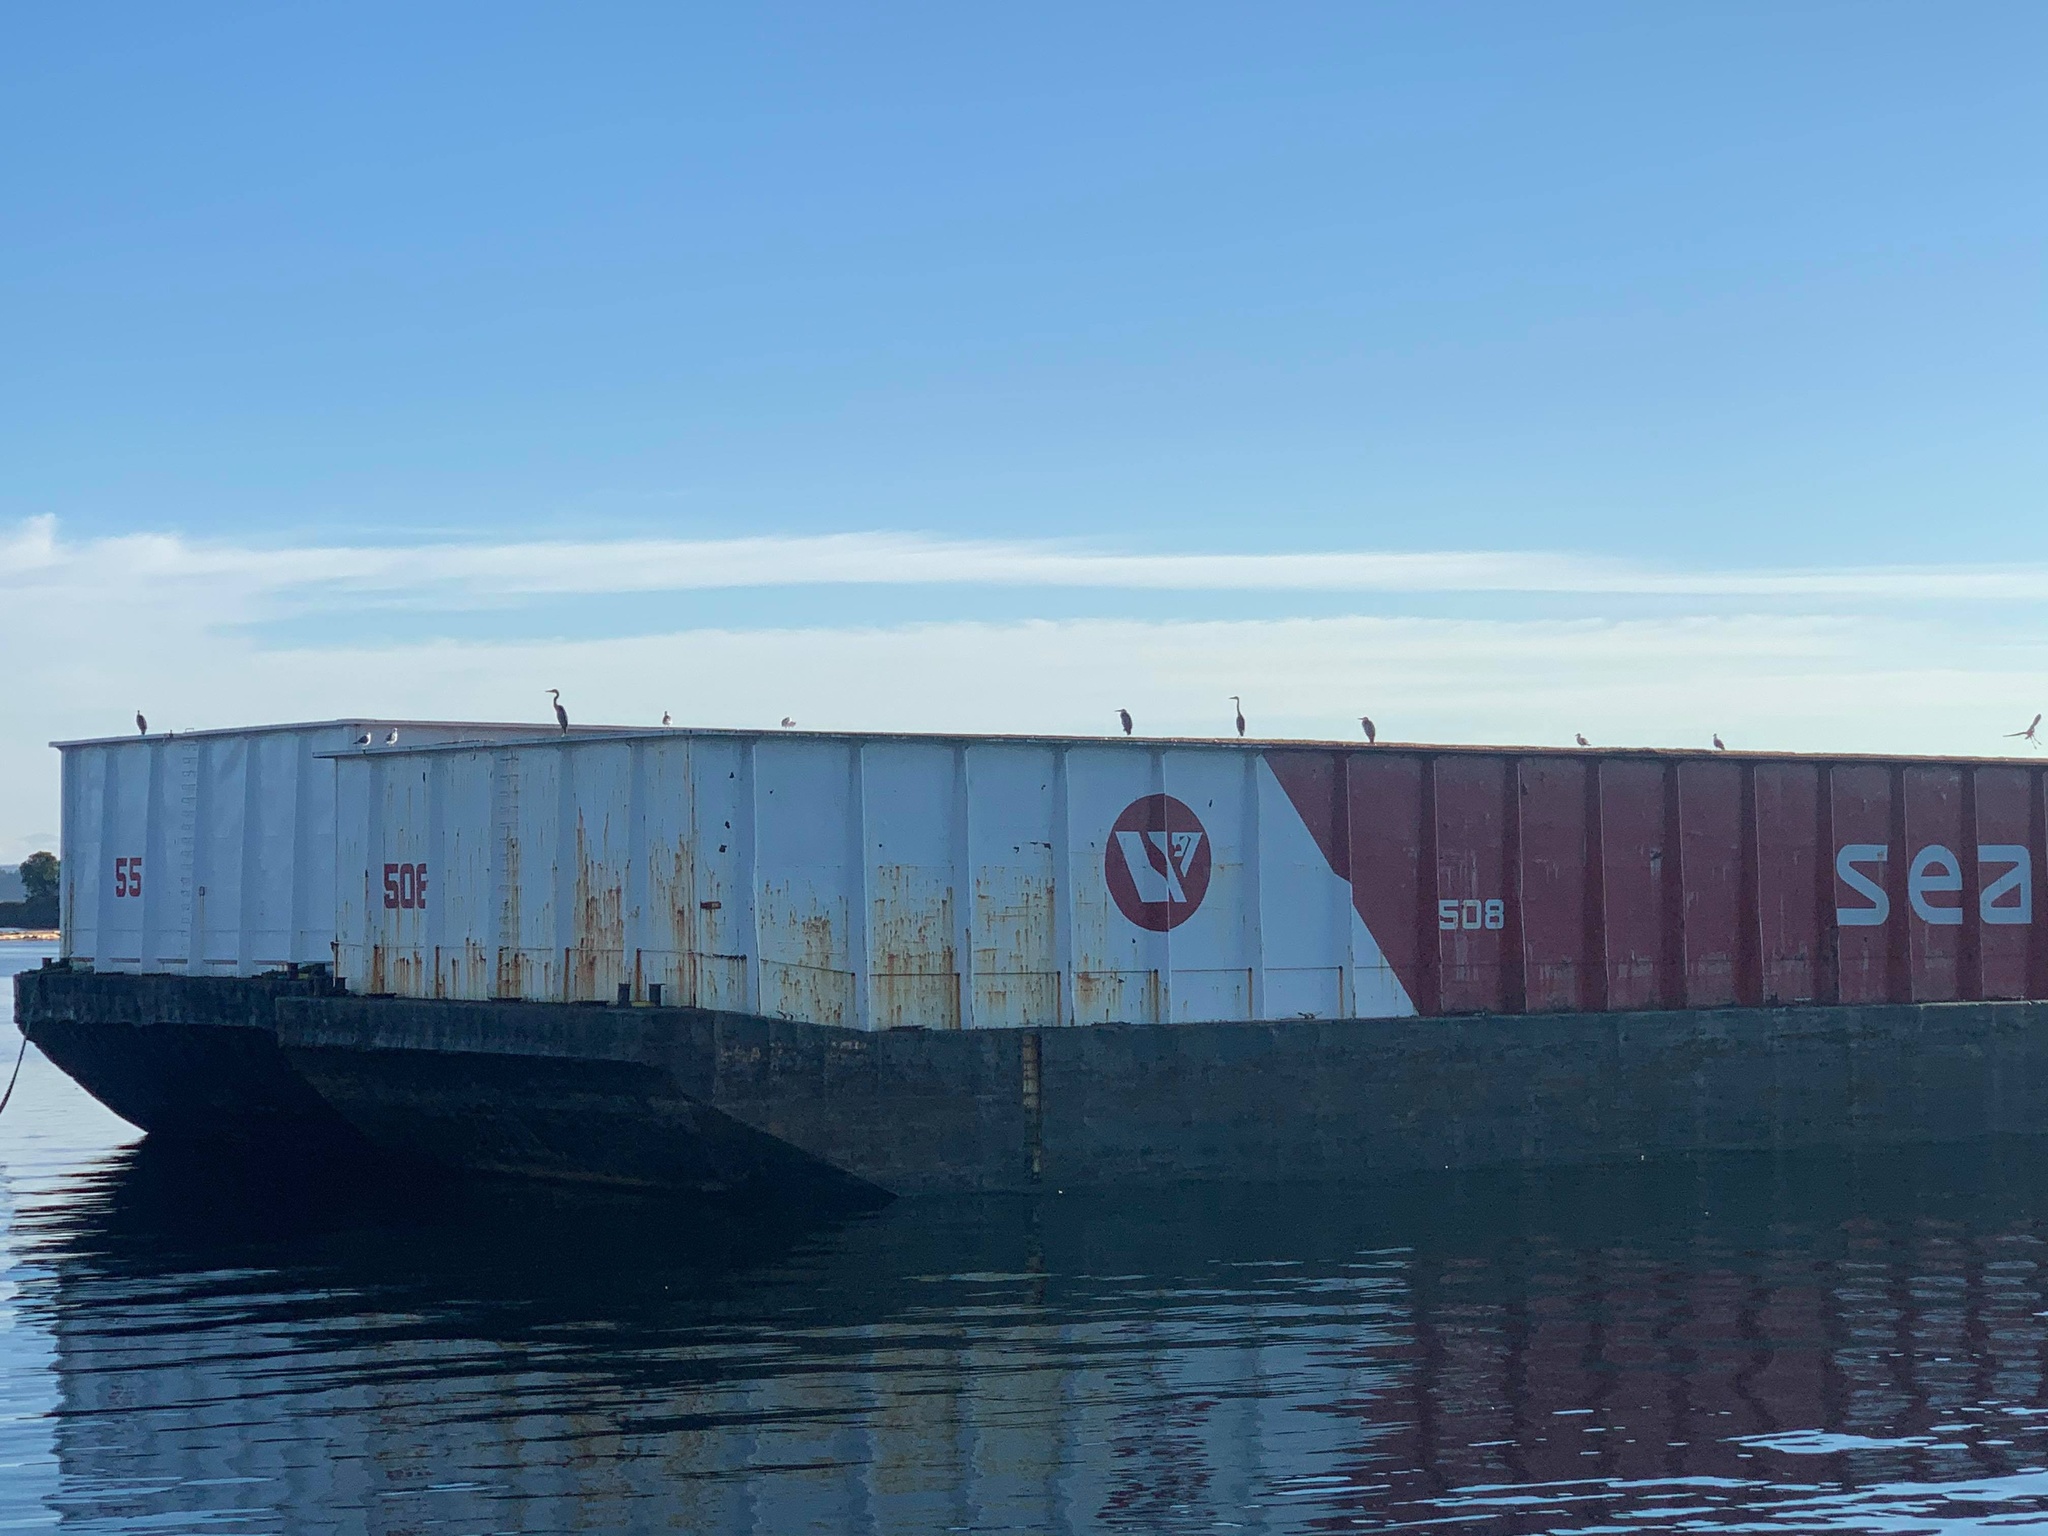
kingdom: Animalia
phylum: Chordata
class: Aves
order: Pelecaniformes
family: Ardeidae
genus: Ardea
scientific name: Ardea herodias
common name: Great blue heron
